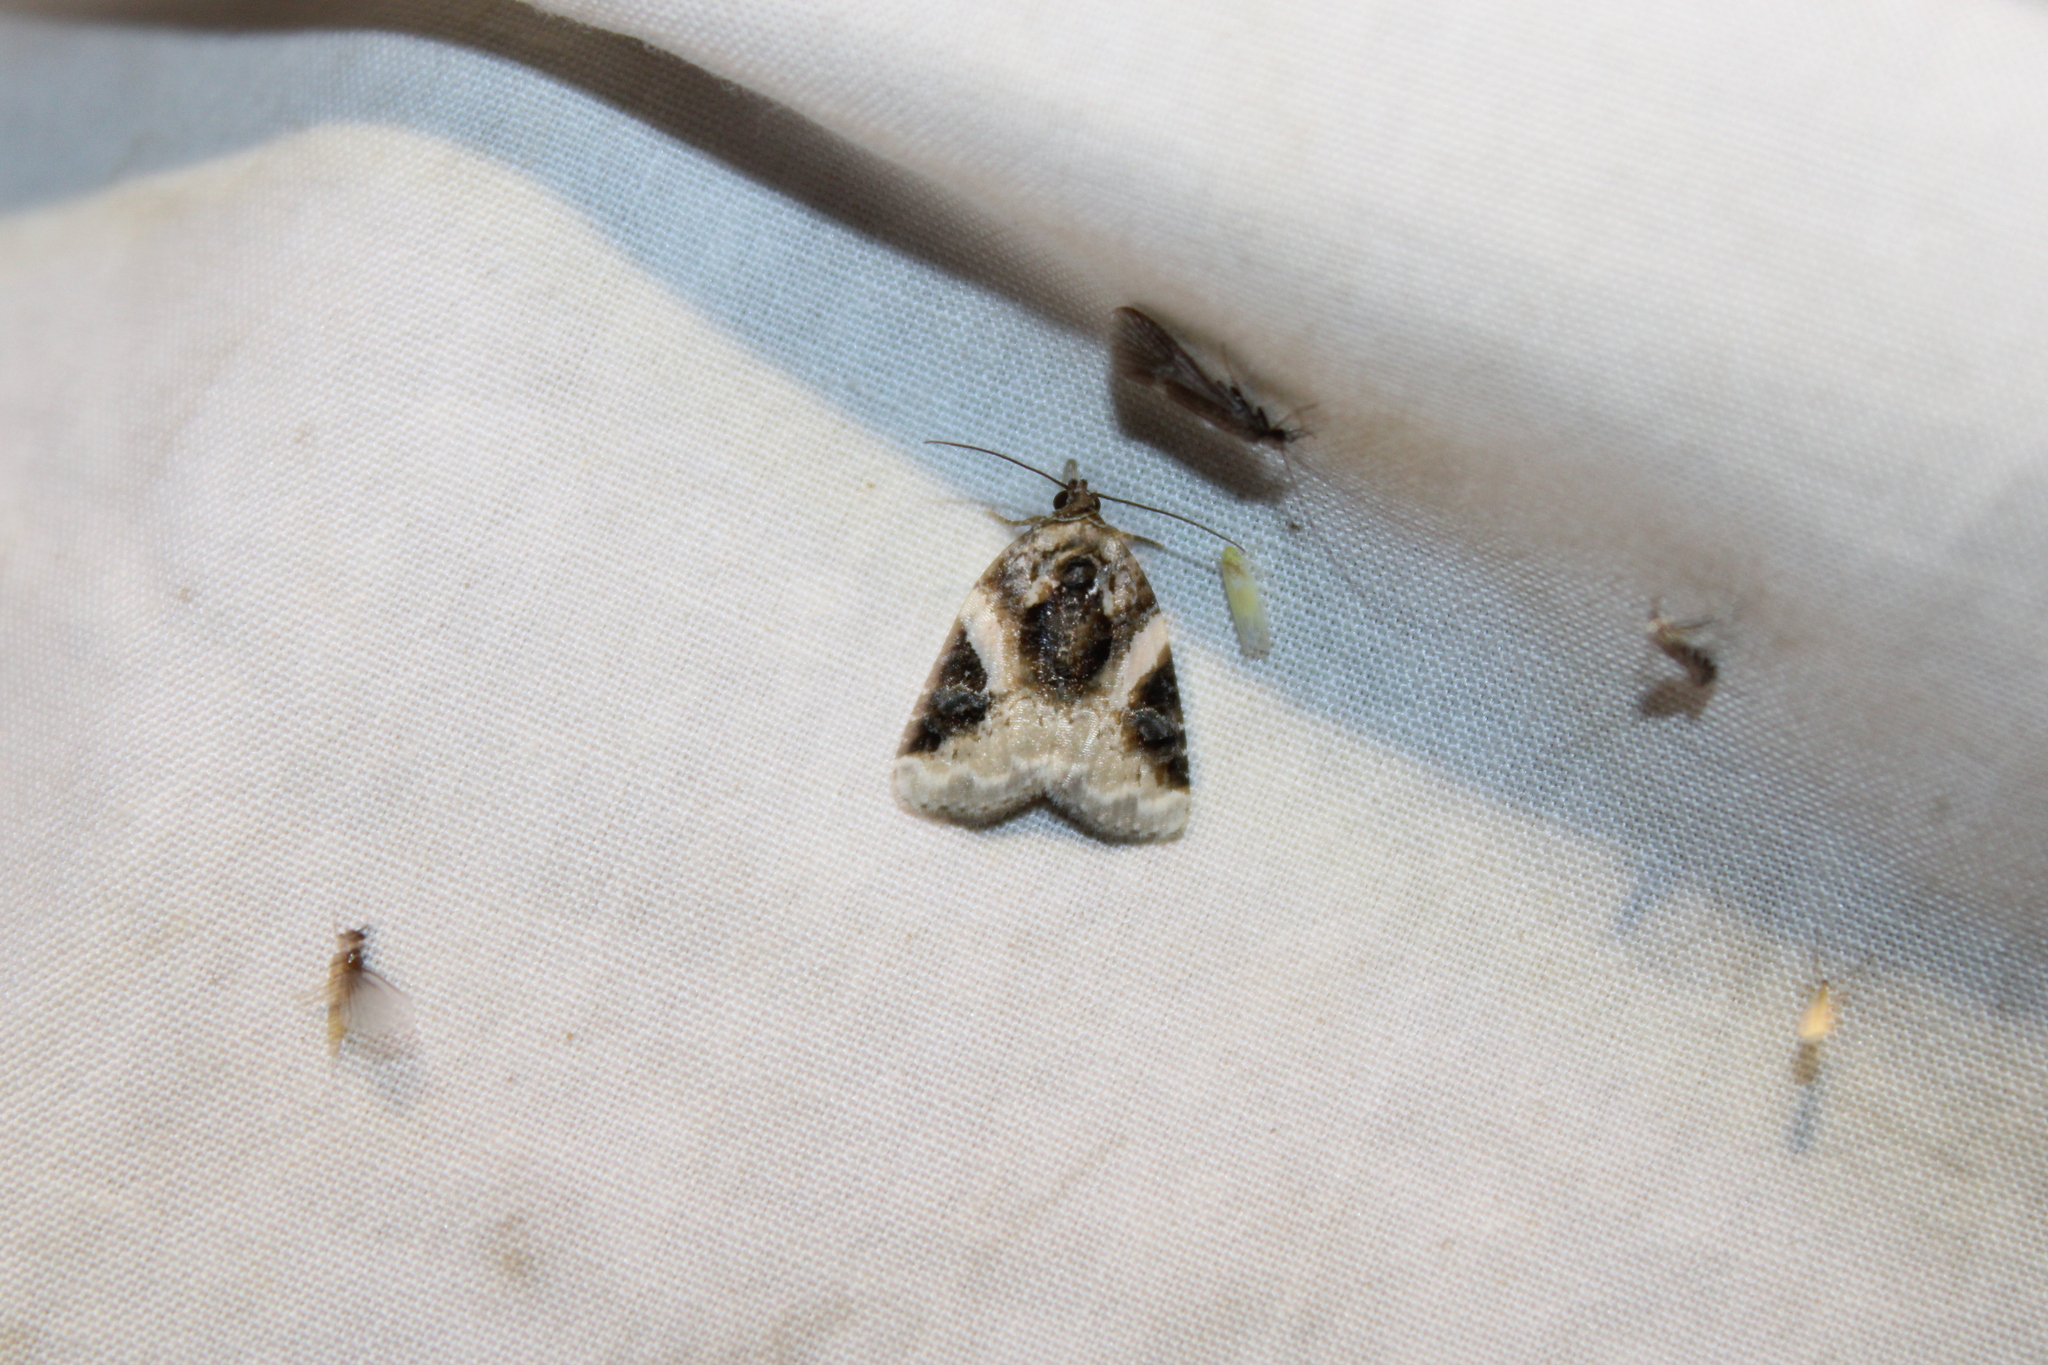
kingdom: Animalia
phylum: Arthropoda
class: Insecta
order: Lepidoptera
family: Noctuidae
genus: Pseudeustrotia
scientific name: Pseudeustrotia carneola
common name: Pink-barred lithacodia moth
